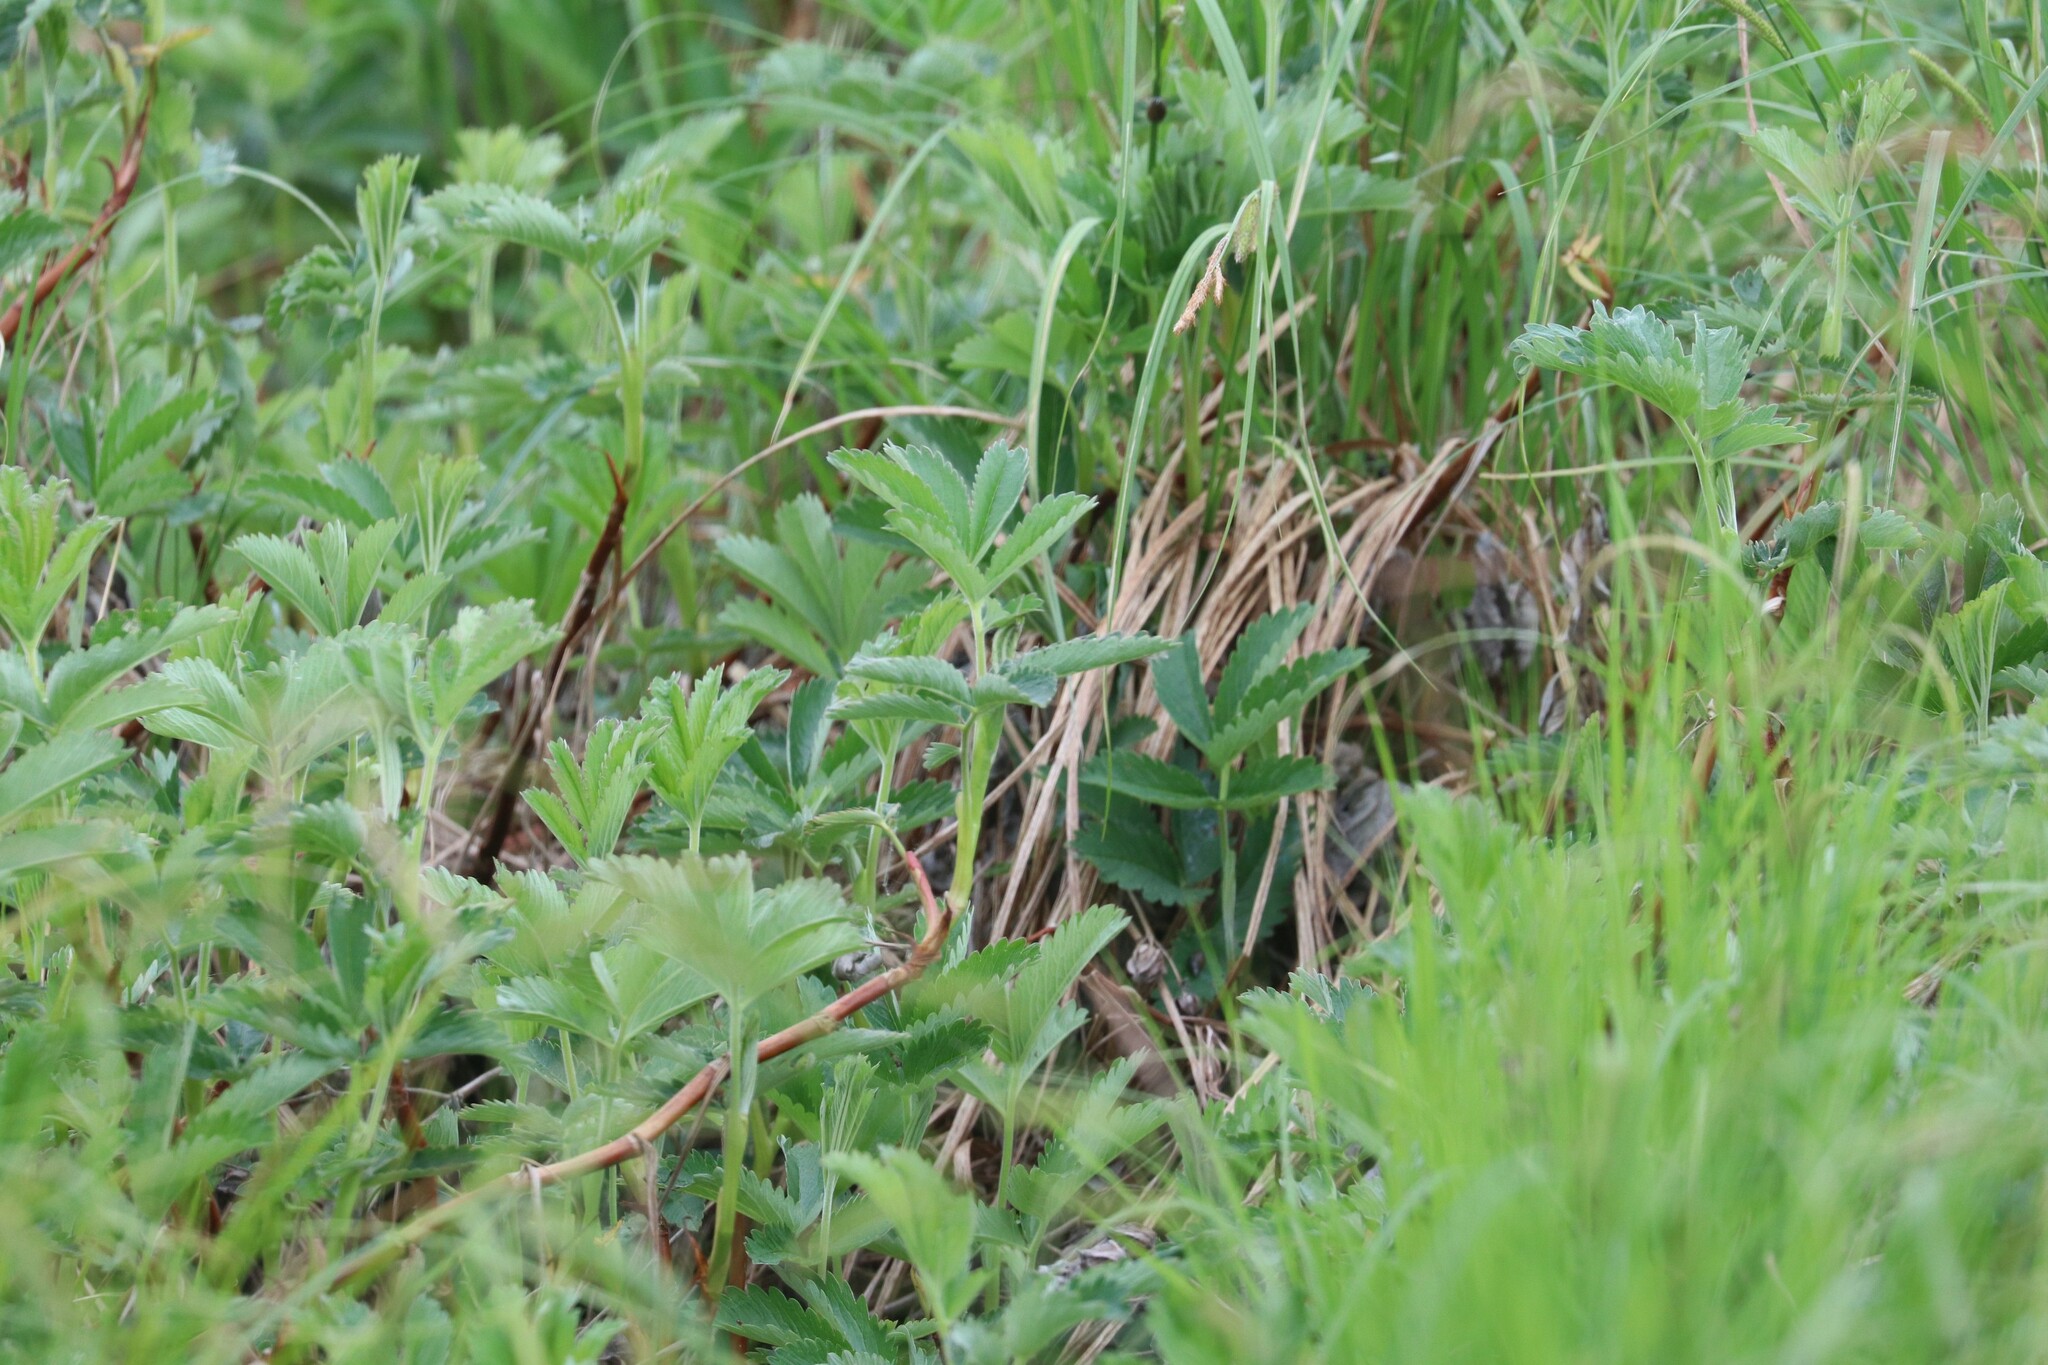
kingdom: Plantae
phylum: Tracheophyta
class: Magnoliopsida
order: Rosales
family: Rosaceae
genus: Comarum
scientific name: Comarum palustre
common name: Marsh cinquefoil
